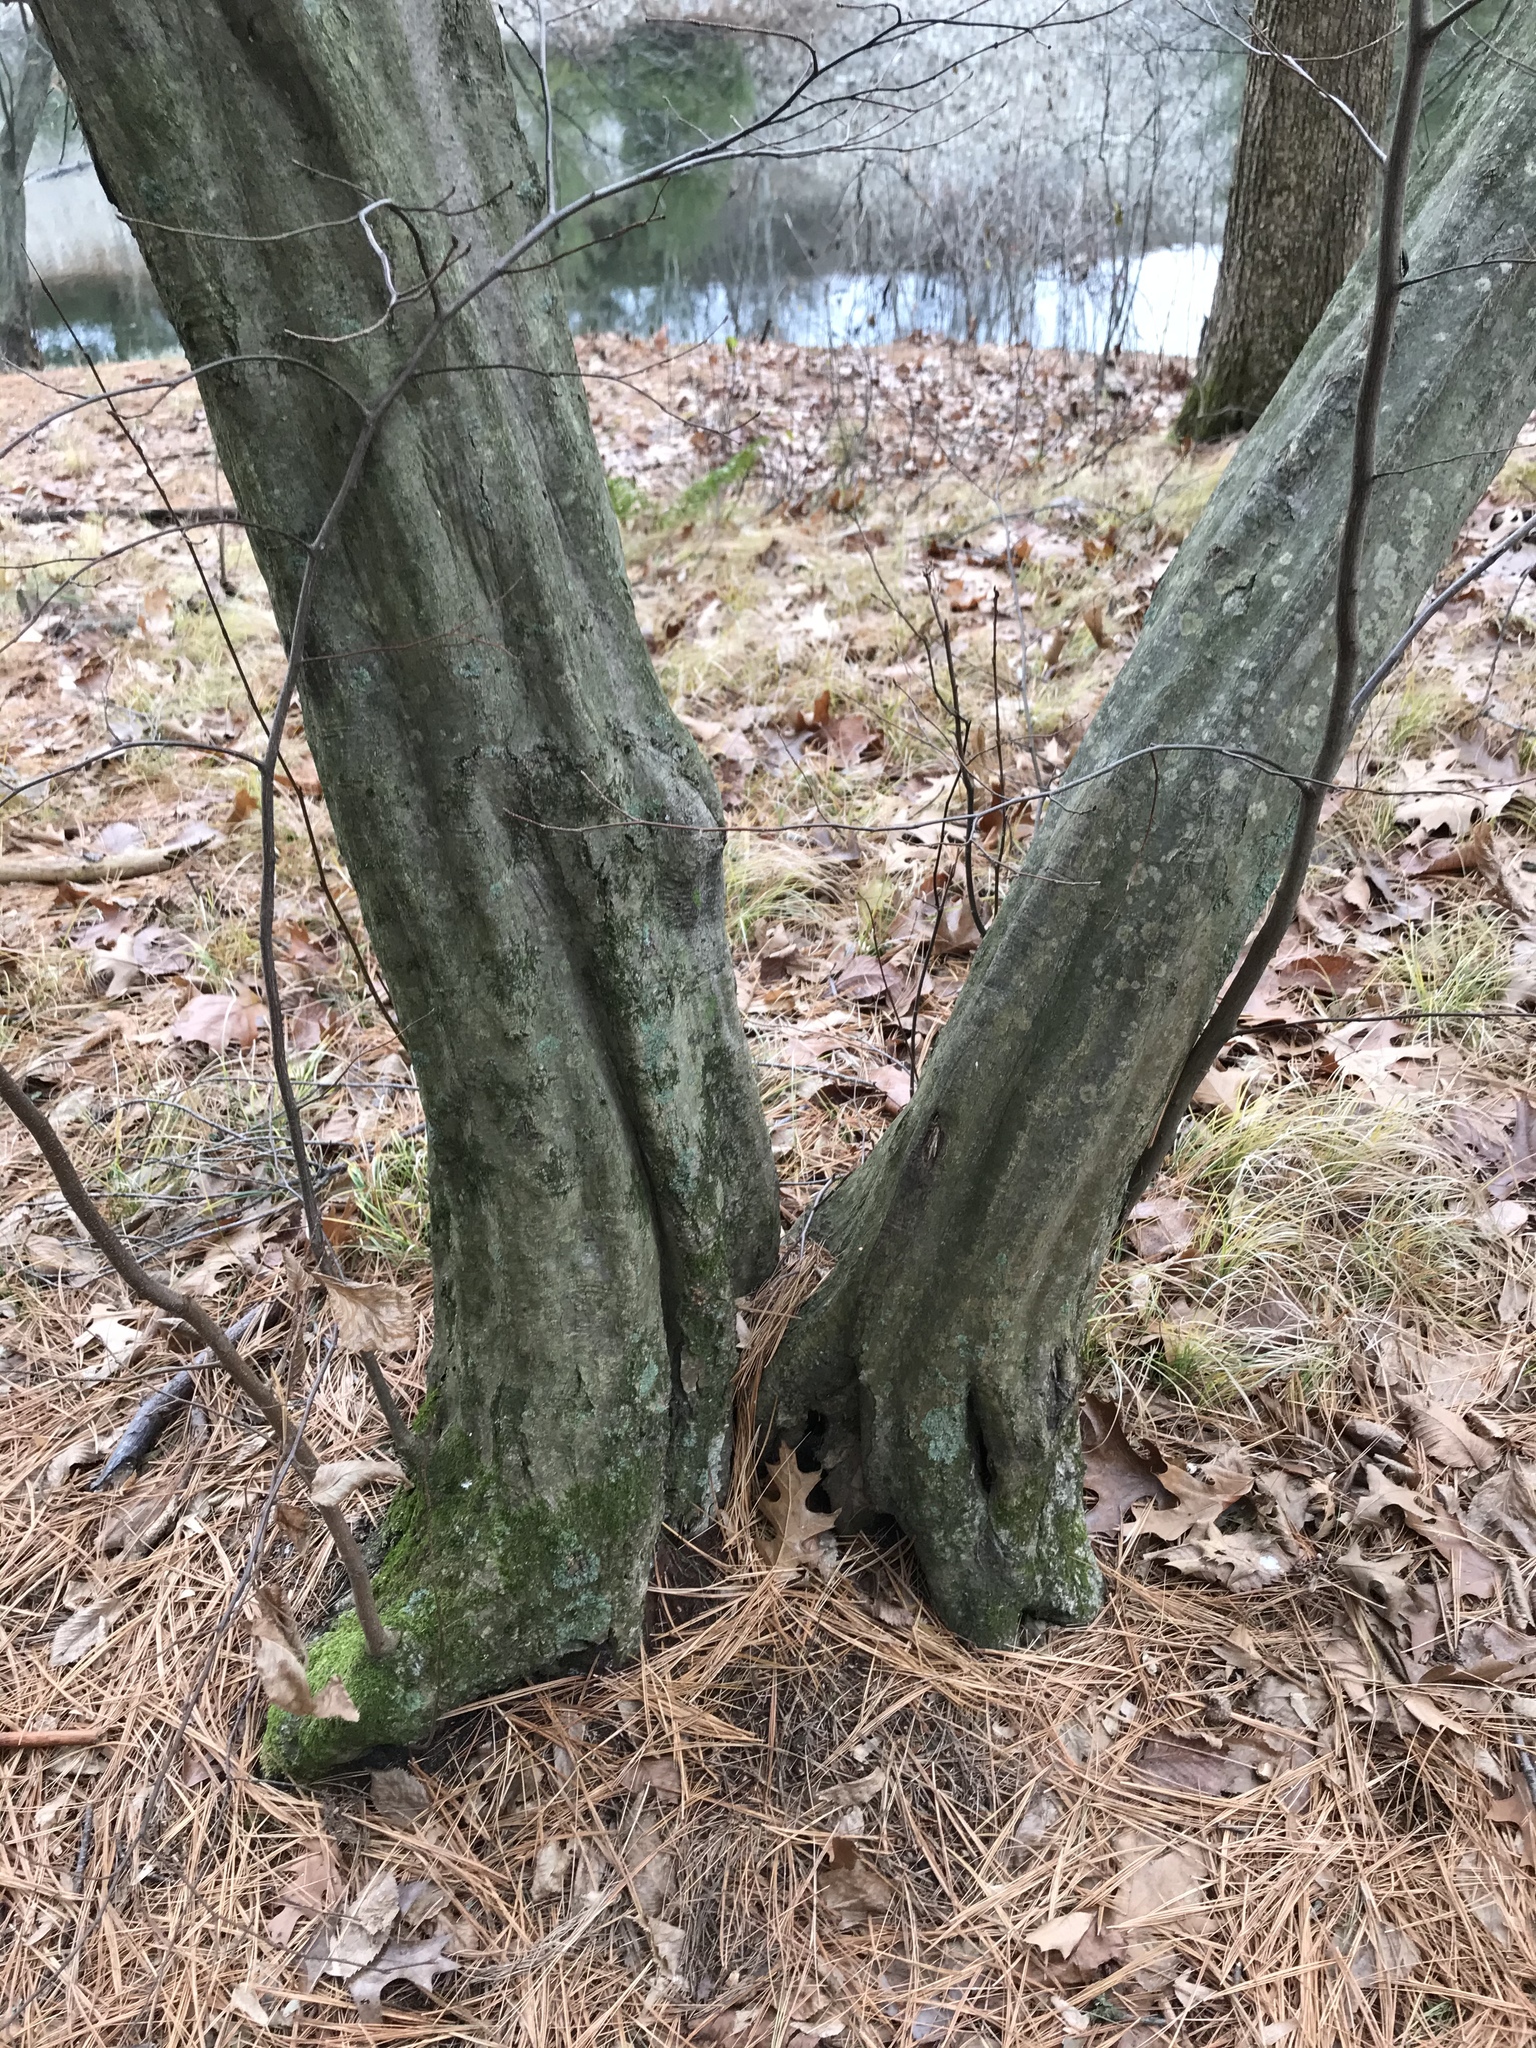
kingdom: Plantae
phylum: Tracheophyta
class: Magnoliopsida
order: Fagales
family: Betulaceae
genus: Carpinus
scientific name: Carpinus caroliniana
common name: American hornbeam
